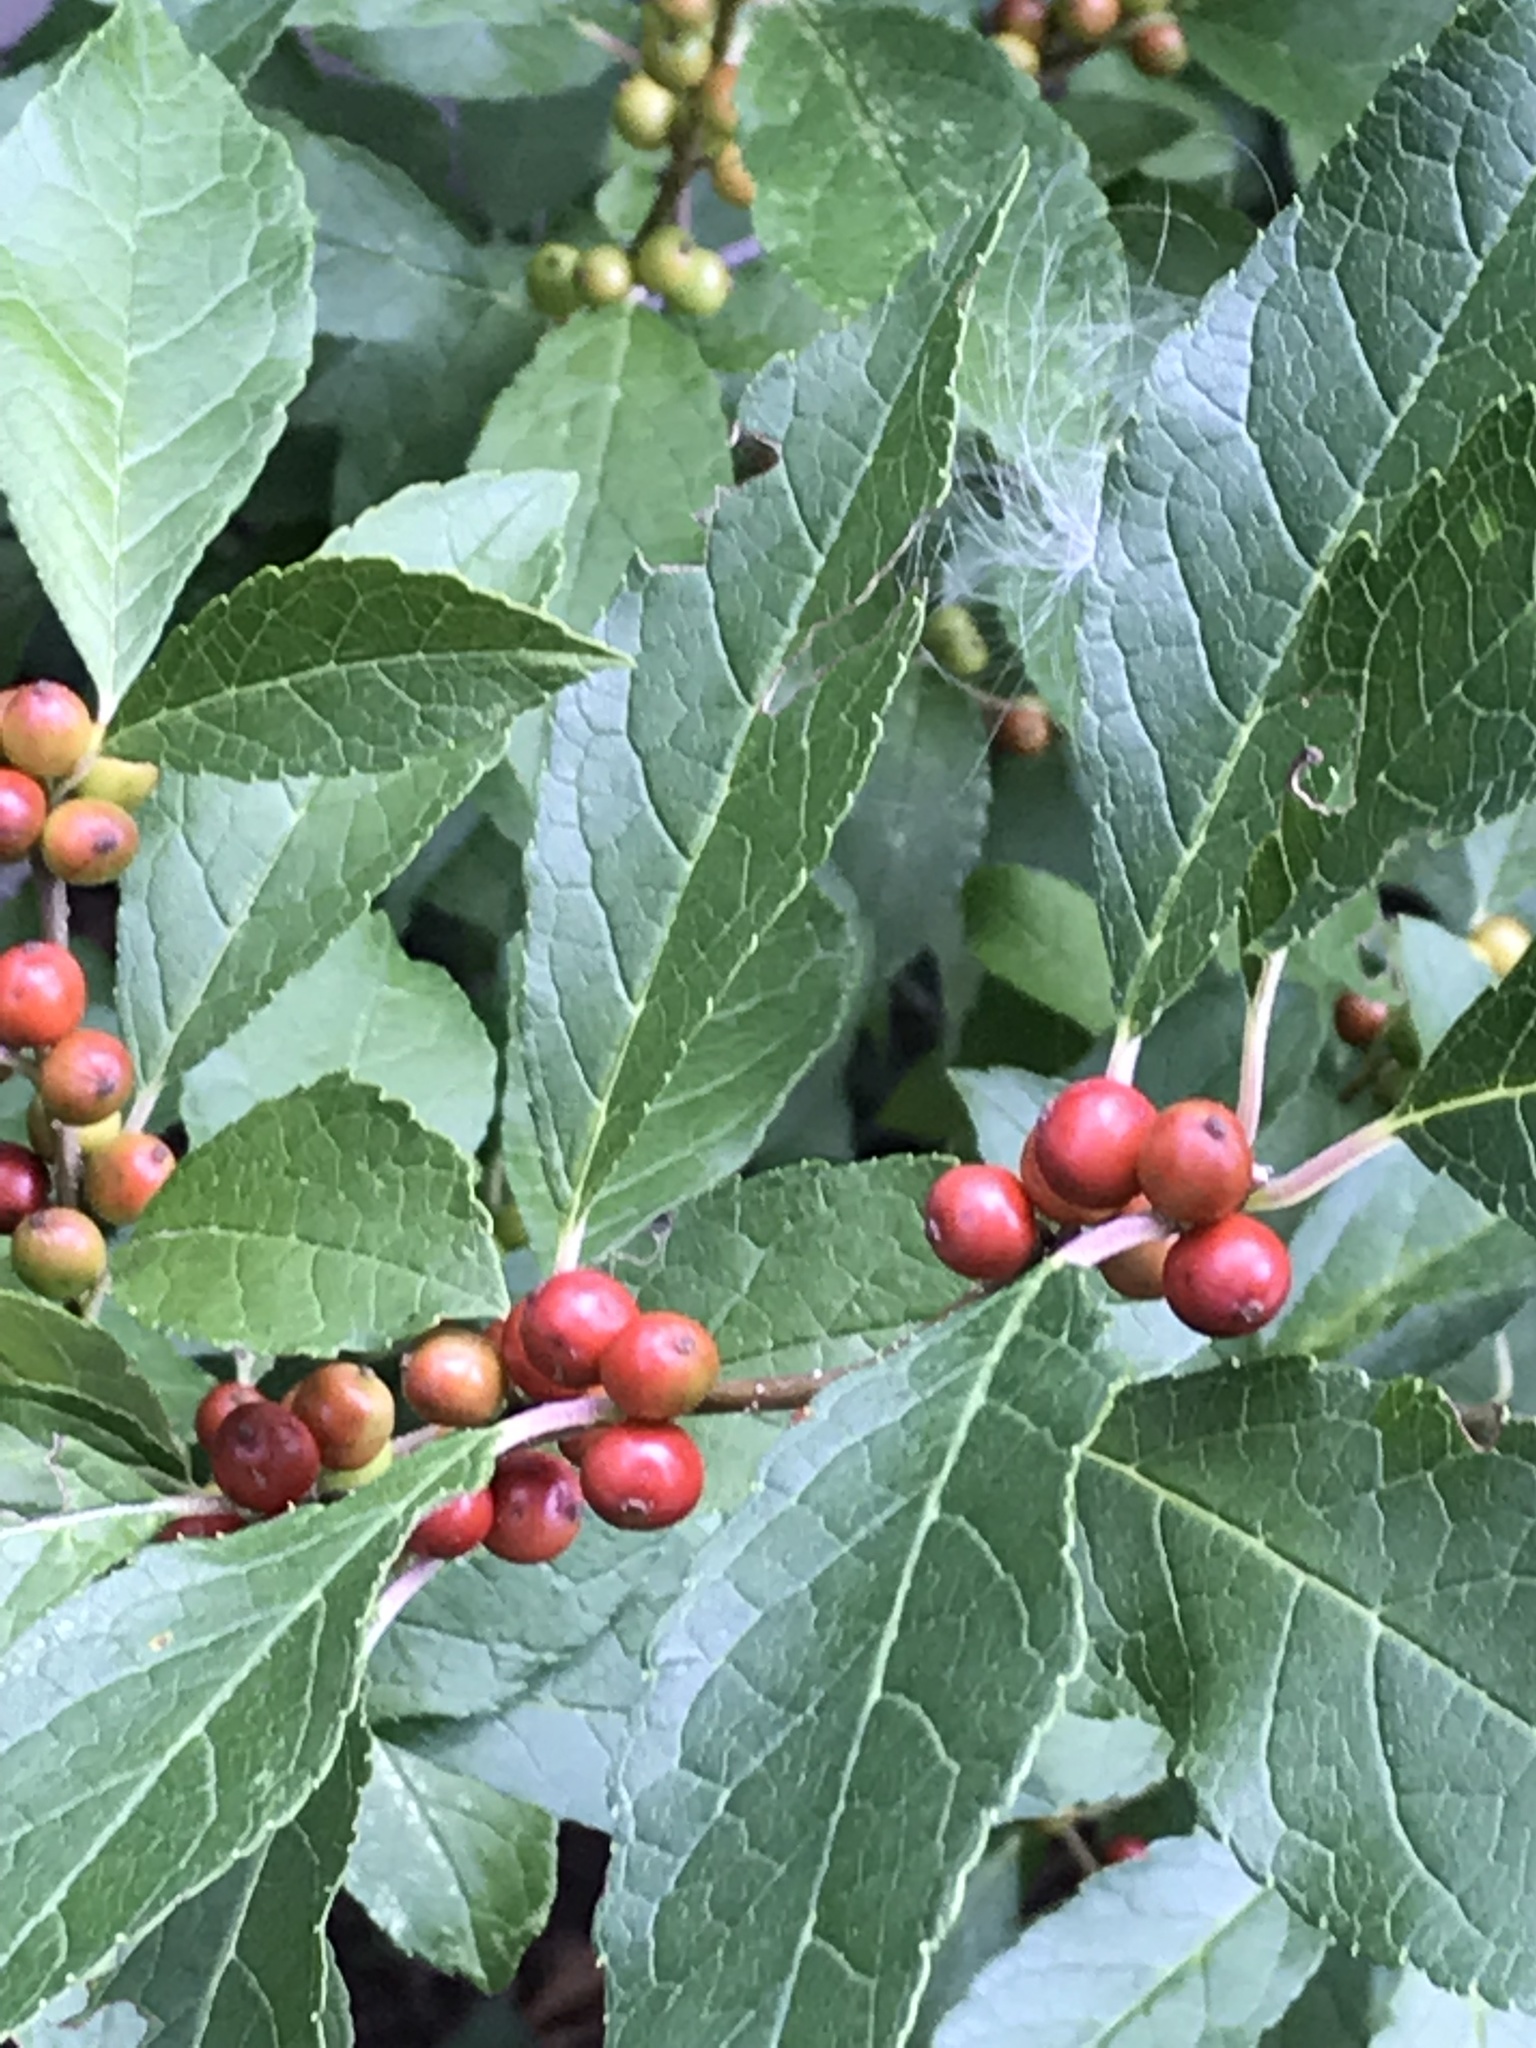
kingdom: Plantae
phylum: Tracheophyta
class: Magnoliopsida
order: Aquifoliales
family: Aquifoliaceae
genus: Ilex
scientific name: Ilex verticillata
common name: Virginia winterberry
